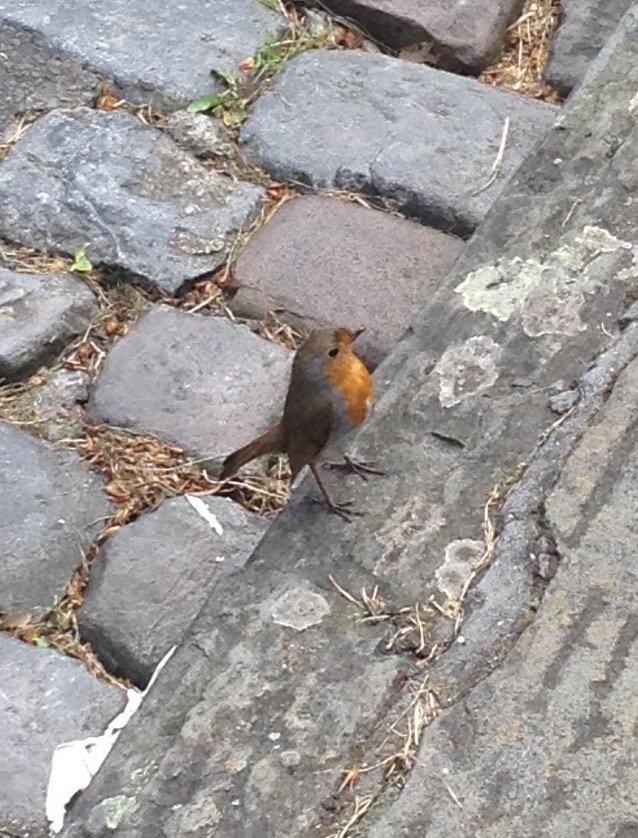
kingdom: Animalia
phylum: Chordata
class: Aves
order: Passeriformes
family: Muscicapidae
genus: Erithacus
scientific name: Erithacus rubecula
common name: European robin
